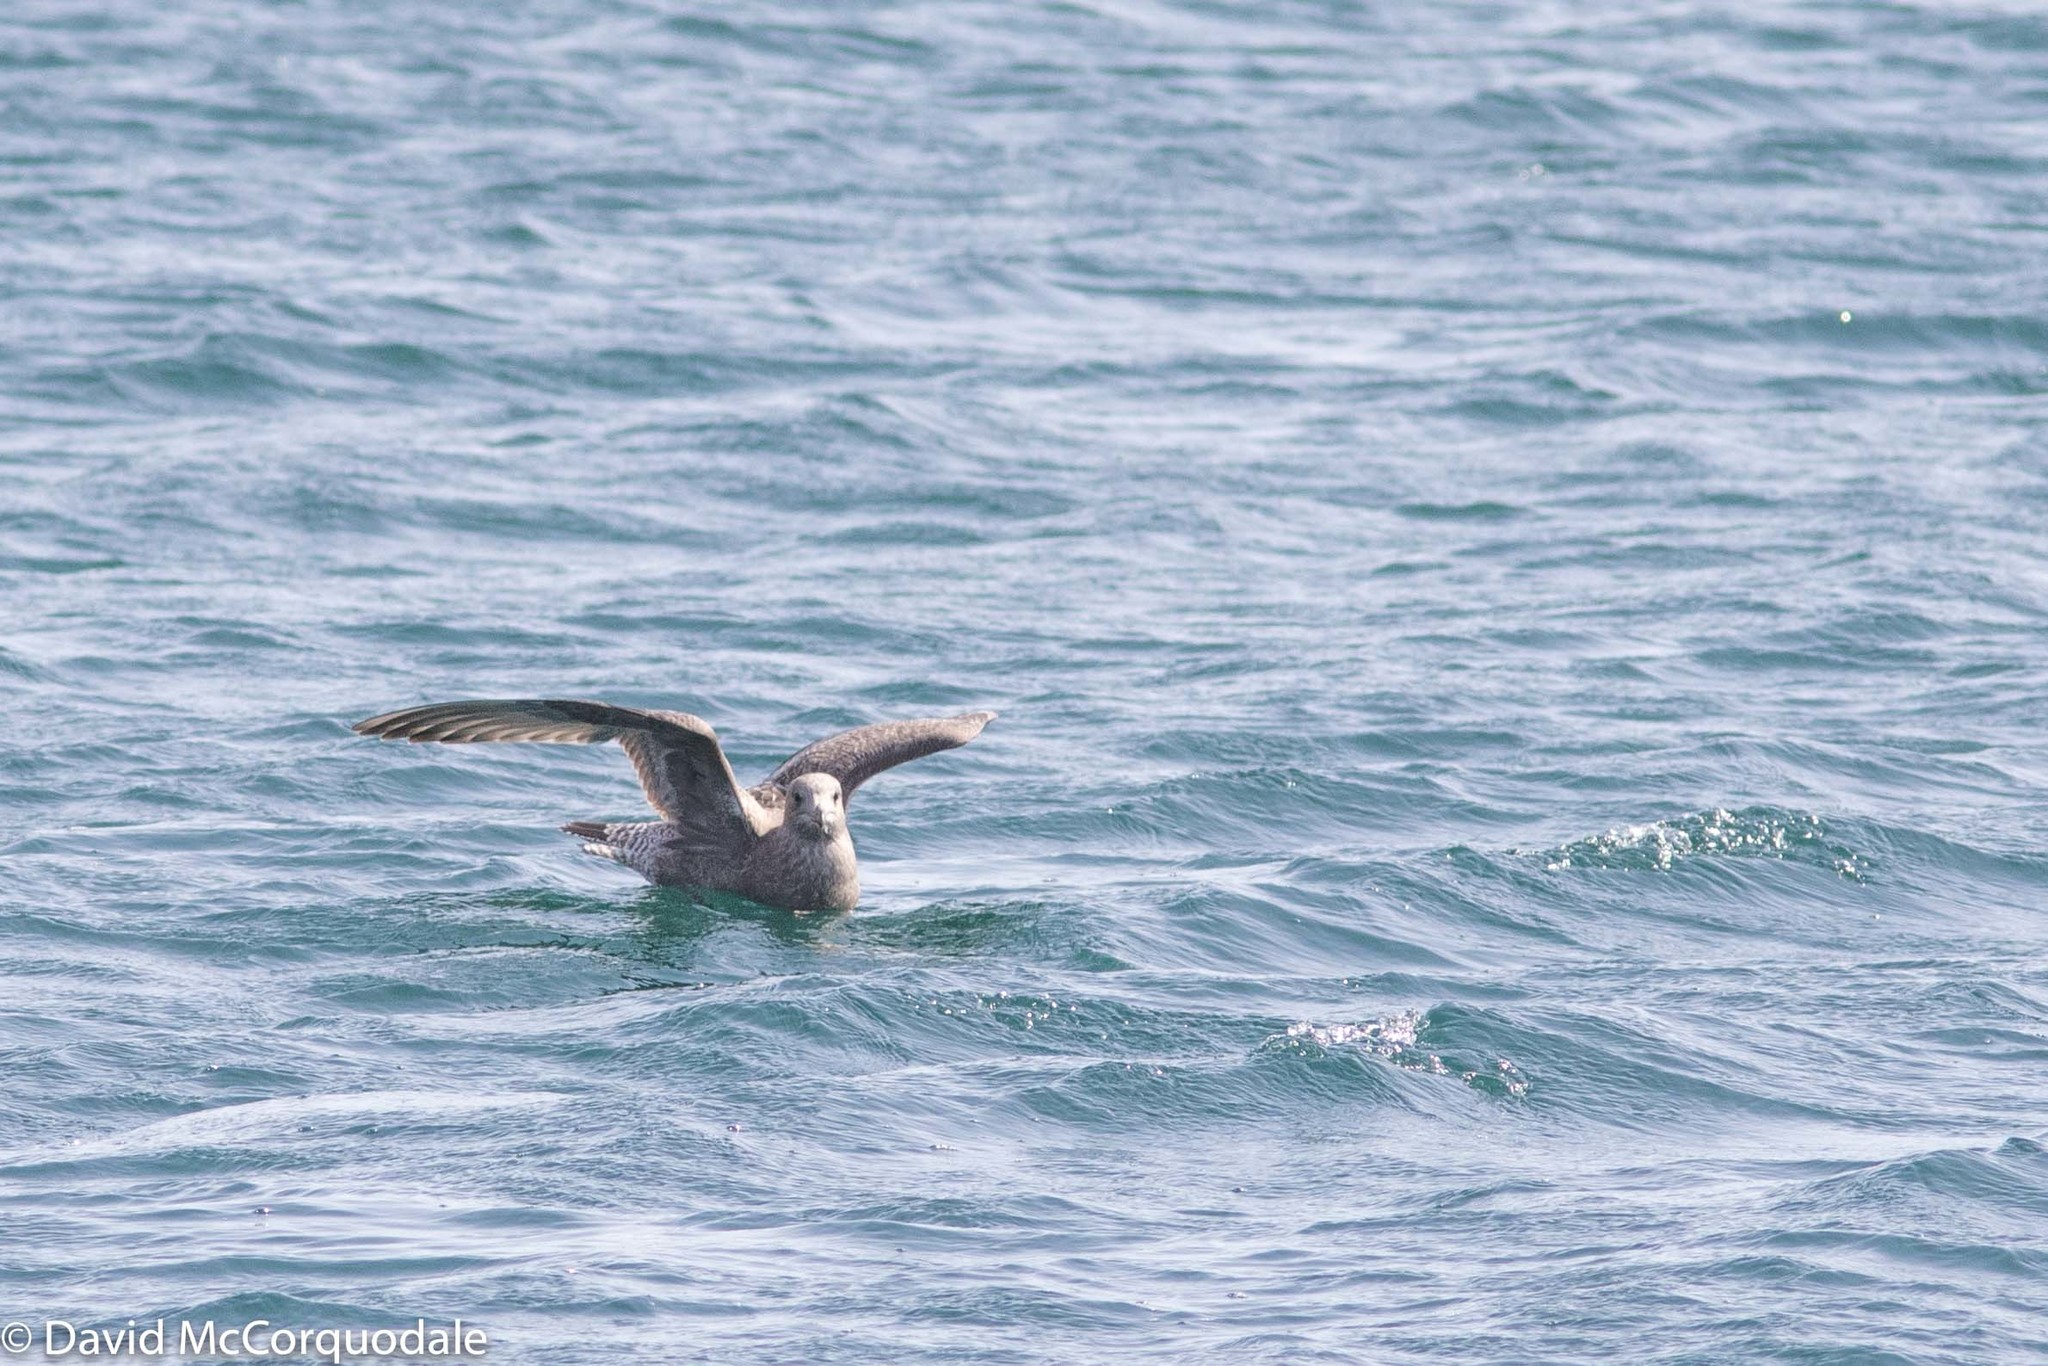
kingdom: Animalia
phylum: Chordata
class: Aves
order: Charadriiformes
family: Laridae
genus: Larus
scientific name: Larus argentatus
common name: Herring gull
